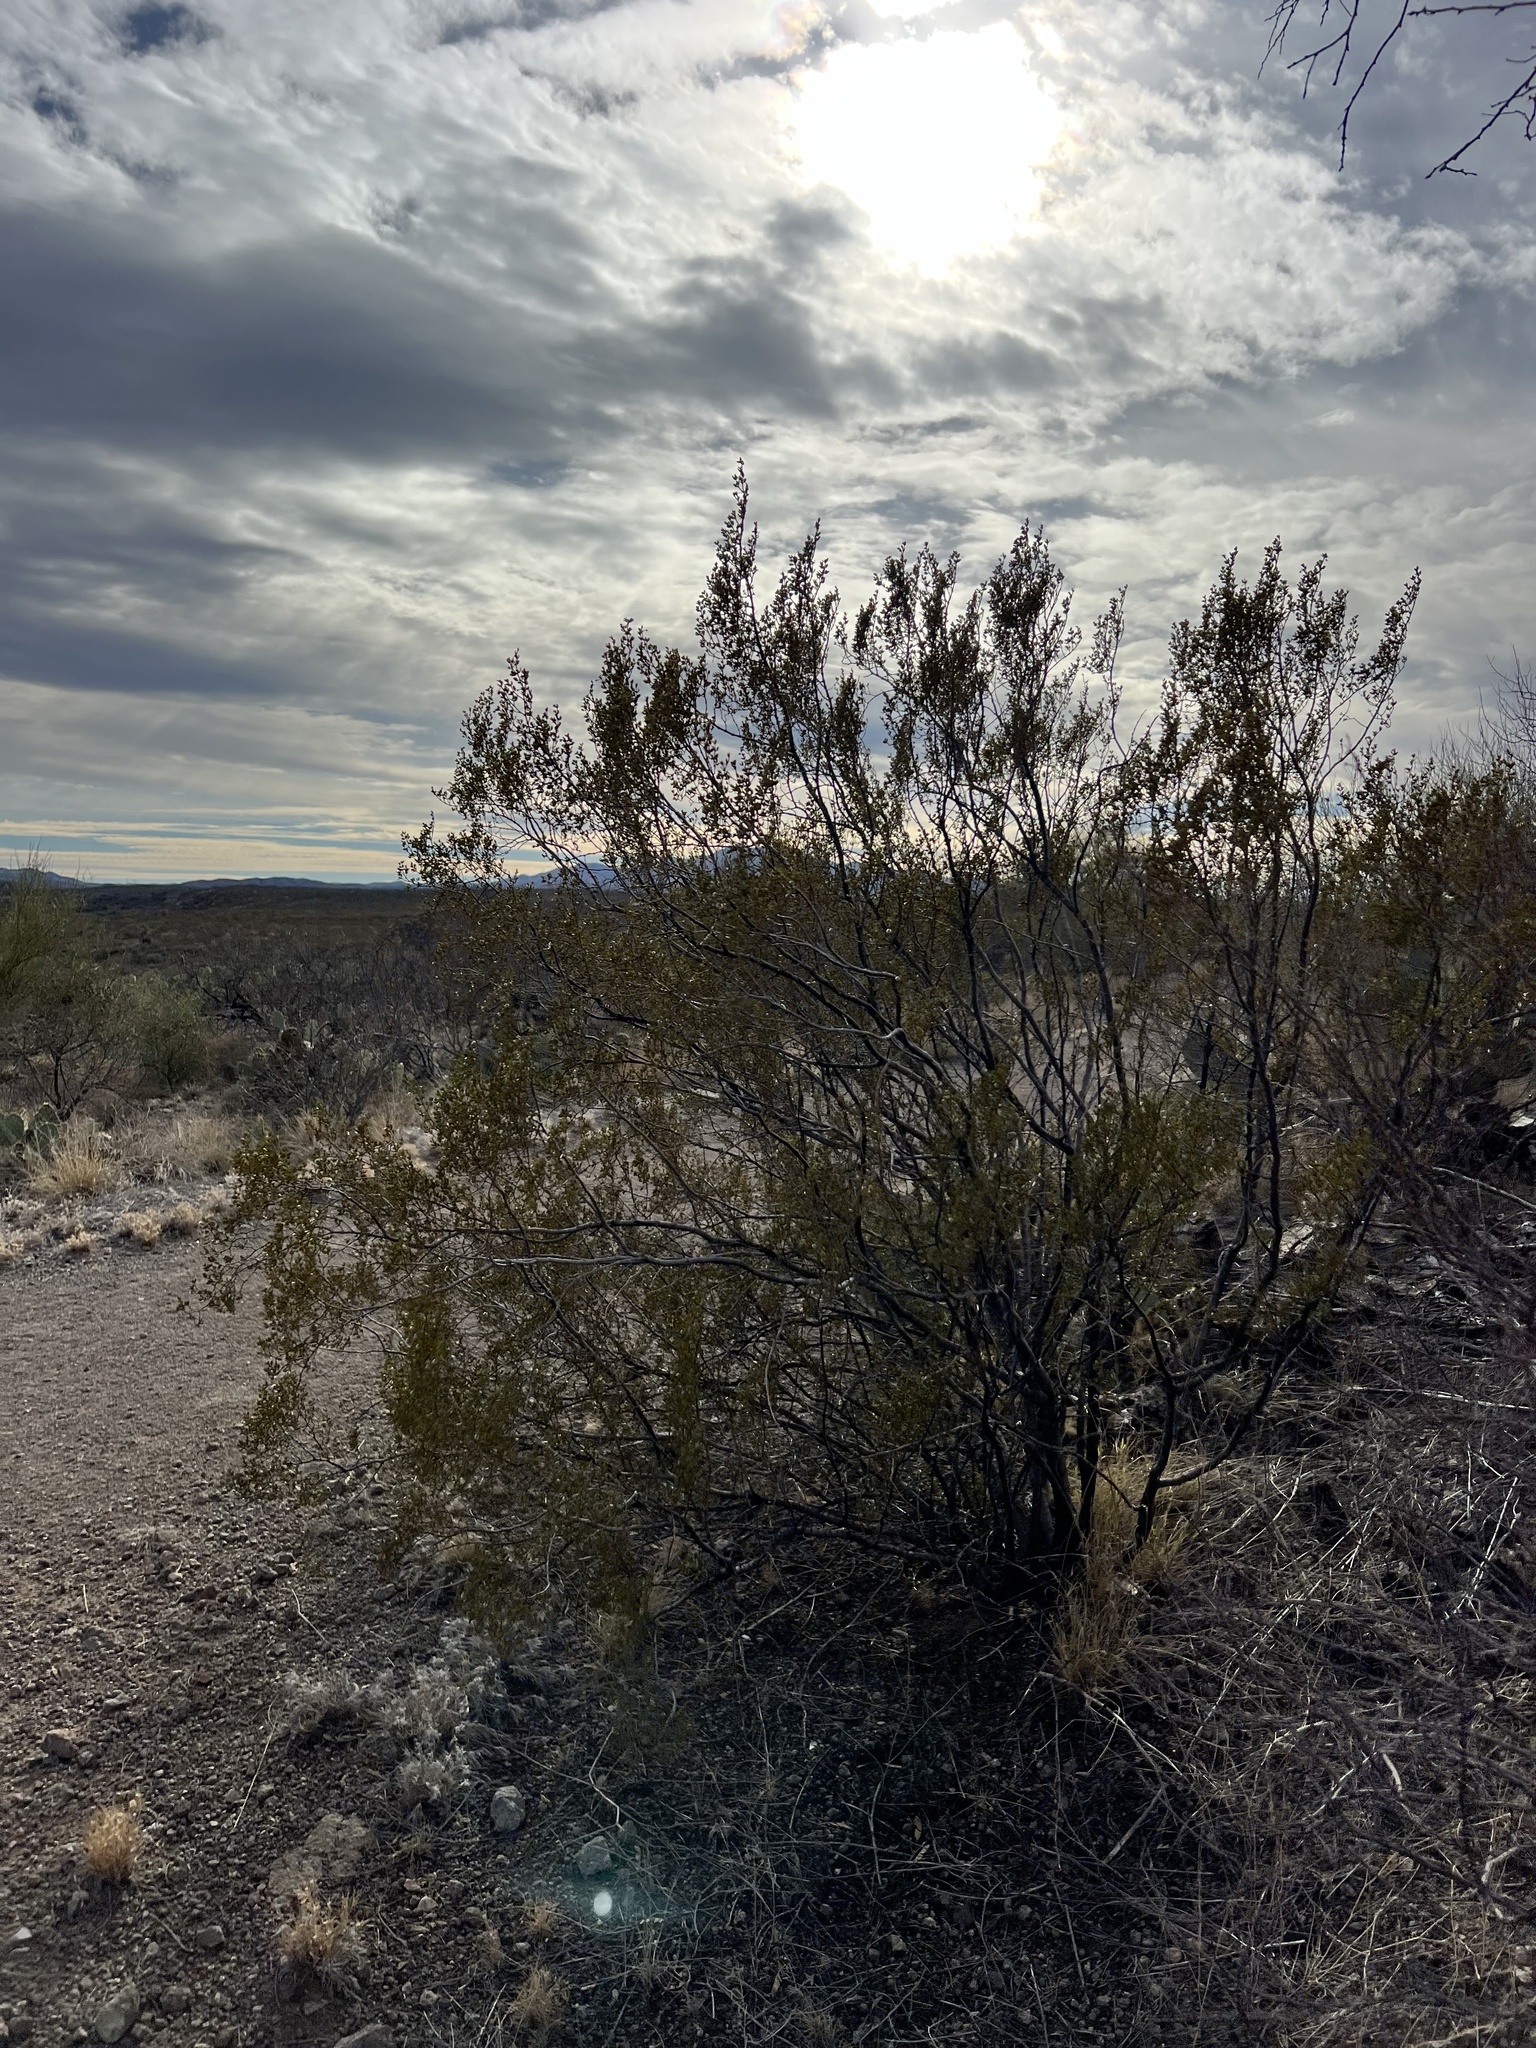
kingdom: Plantae
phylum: Tracheophyta
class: Magnoliopsida
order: Zygophyllales
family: Zygophyllaceae
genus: Larrea
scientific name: Larrea tridentata
